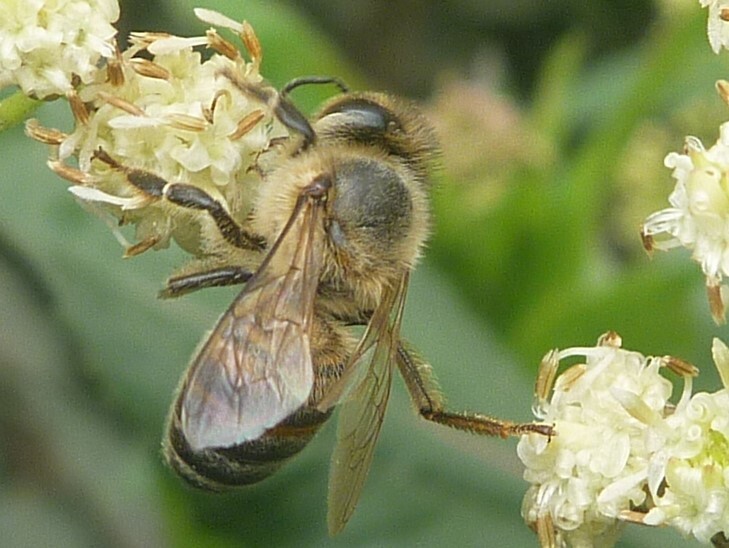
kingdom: Animalia
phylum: Arthropoda
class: Insecta
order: Hymenoptera
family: Apidae
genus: Apis
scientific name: Apis mellifera
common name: Honey bee
